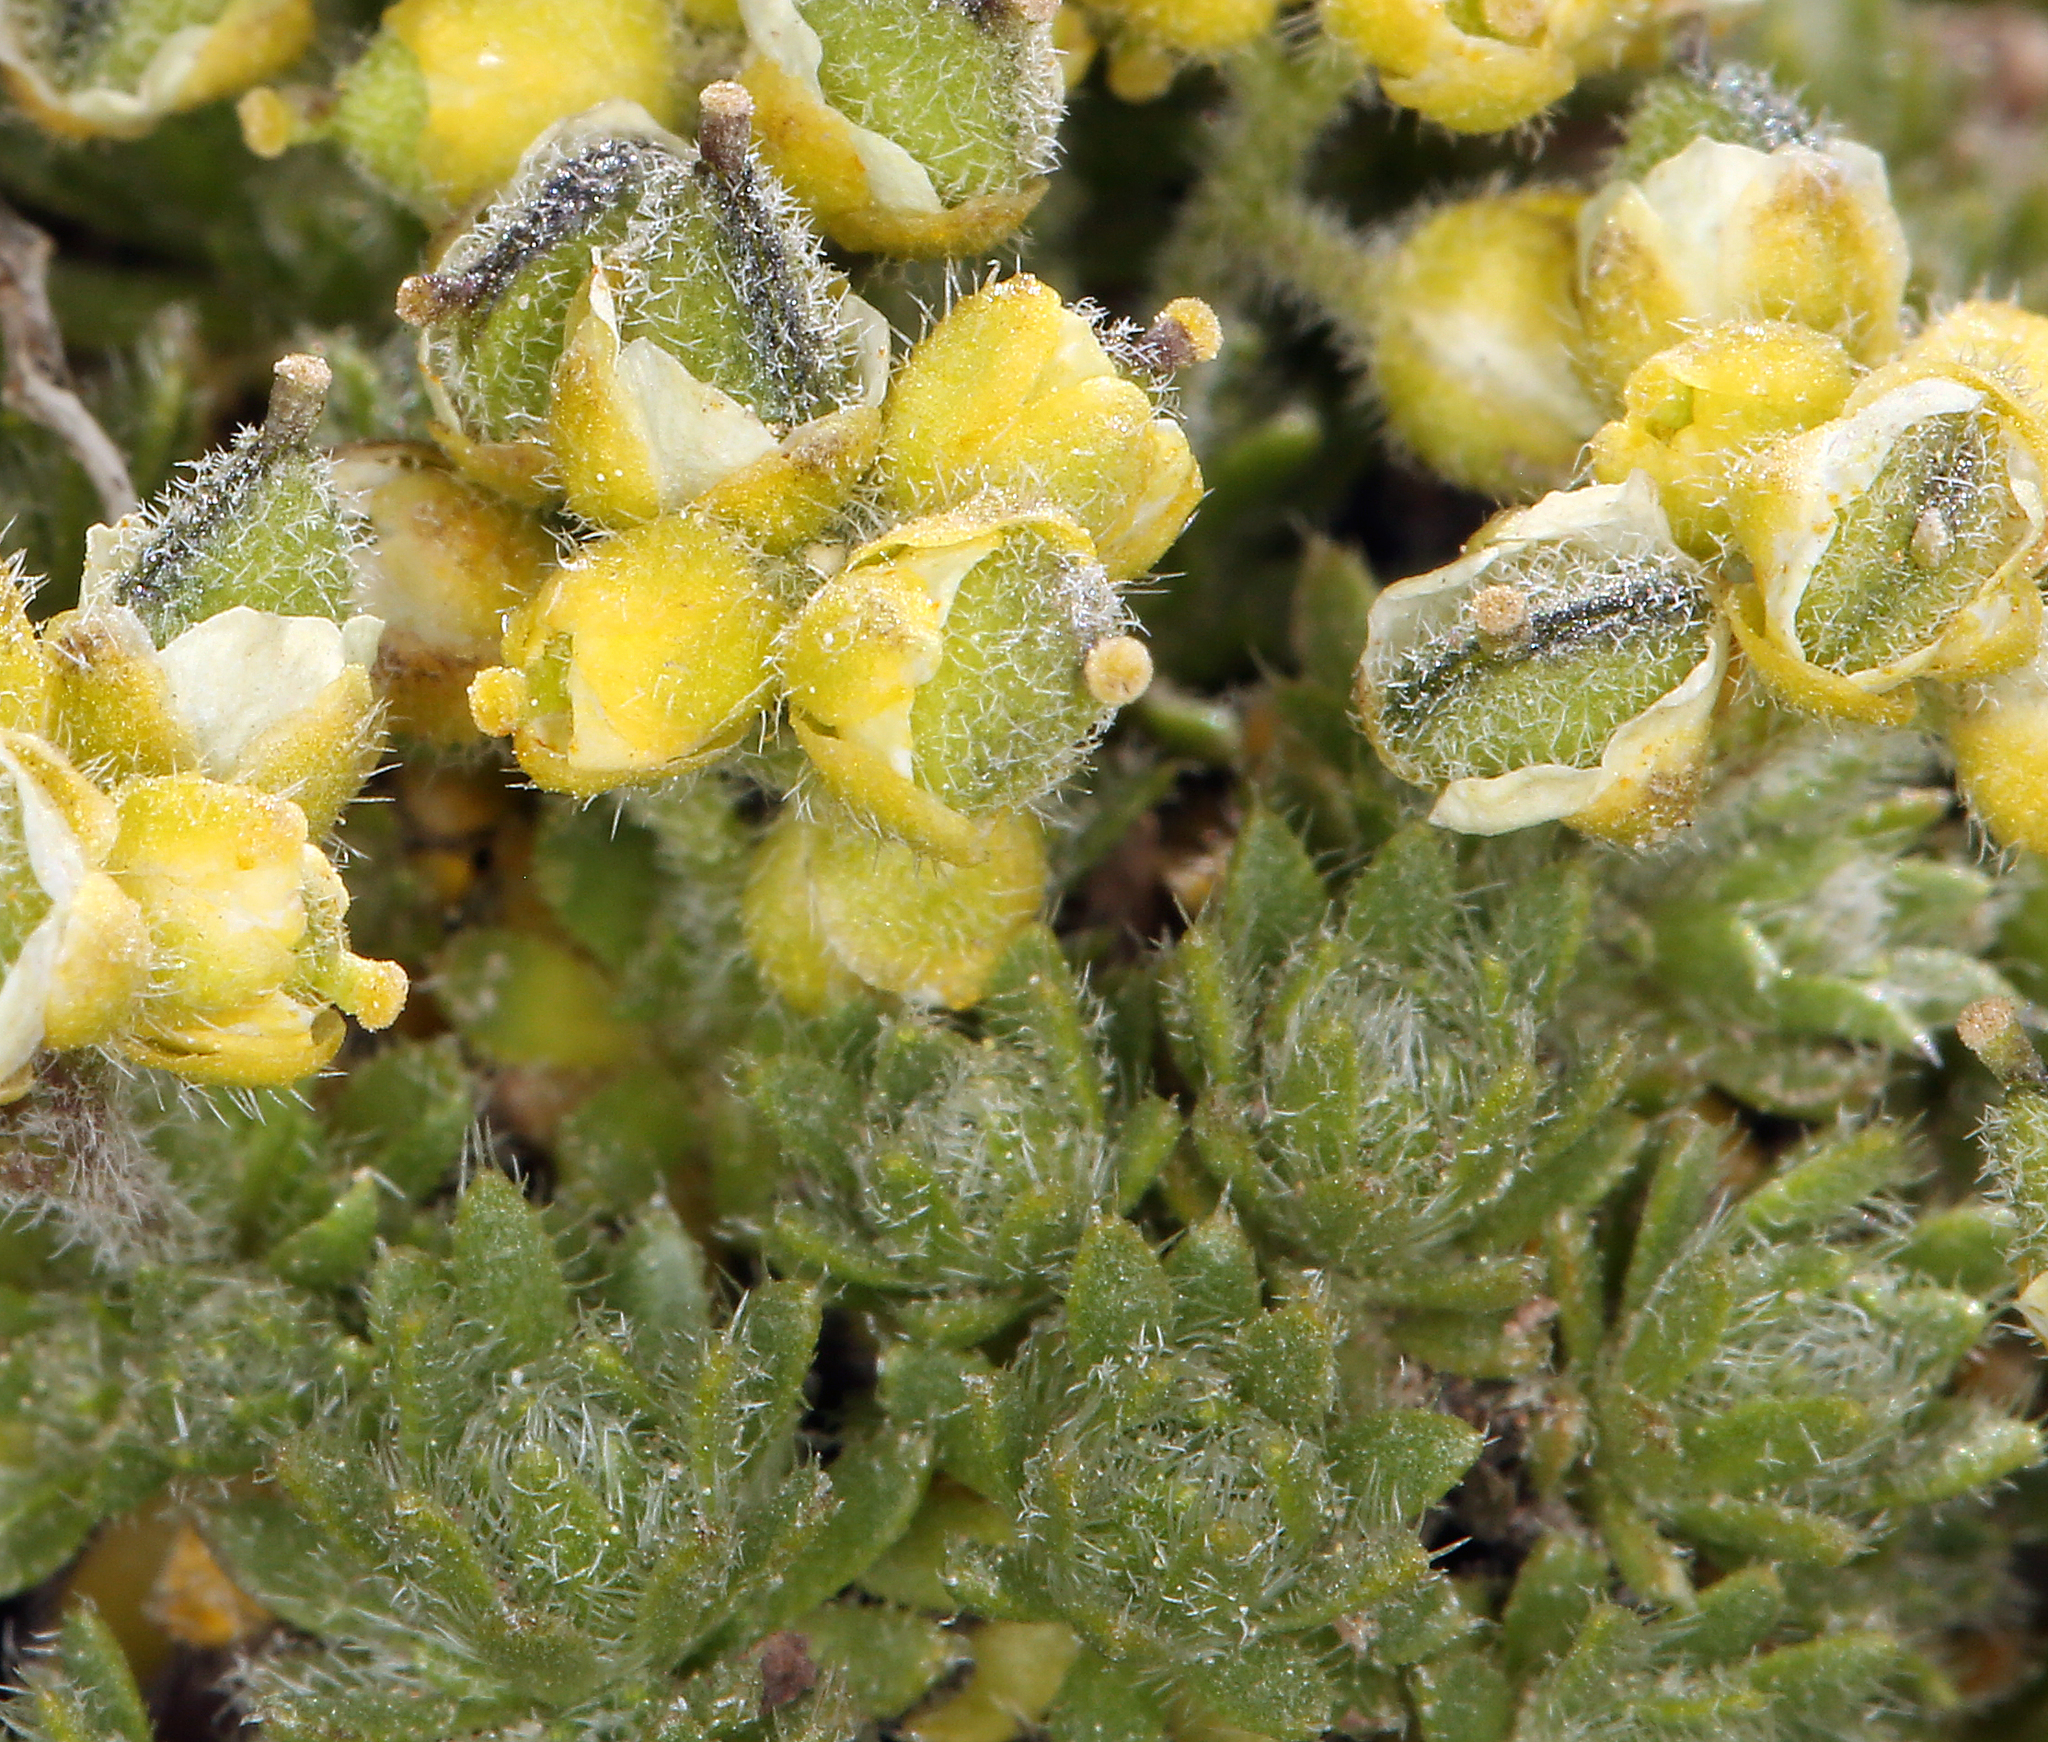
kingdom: Plantae
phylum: Tracheophyta
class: Magnoliopsida
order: Brassicales
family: Brassicaceae
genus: Draba
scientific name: Draba densifolia
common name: Nuttall's draba
